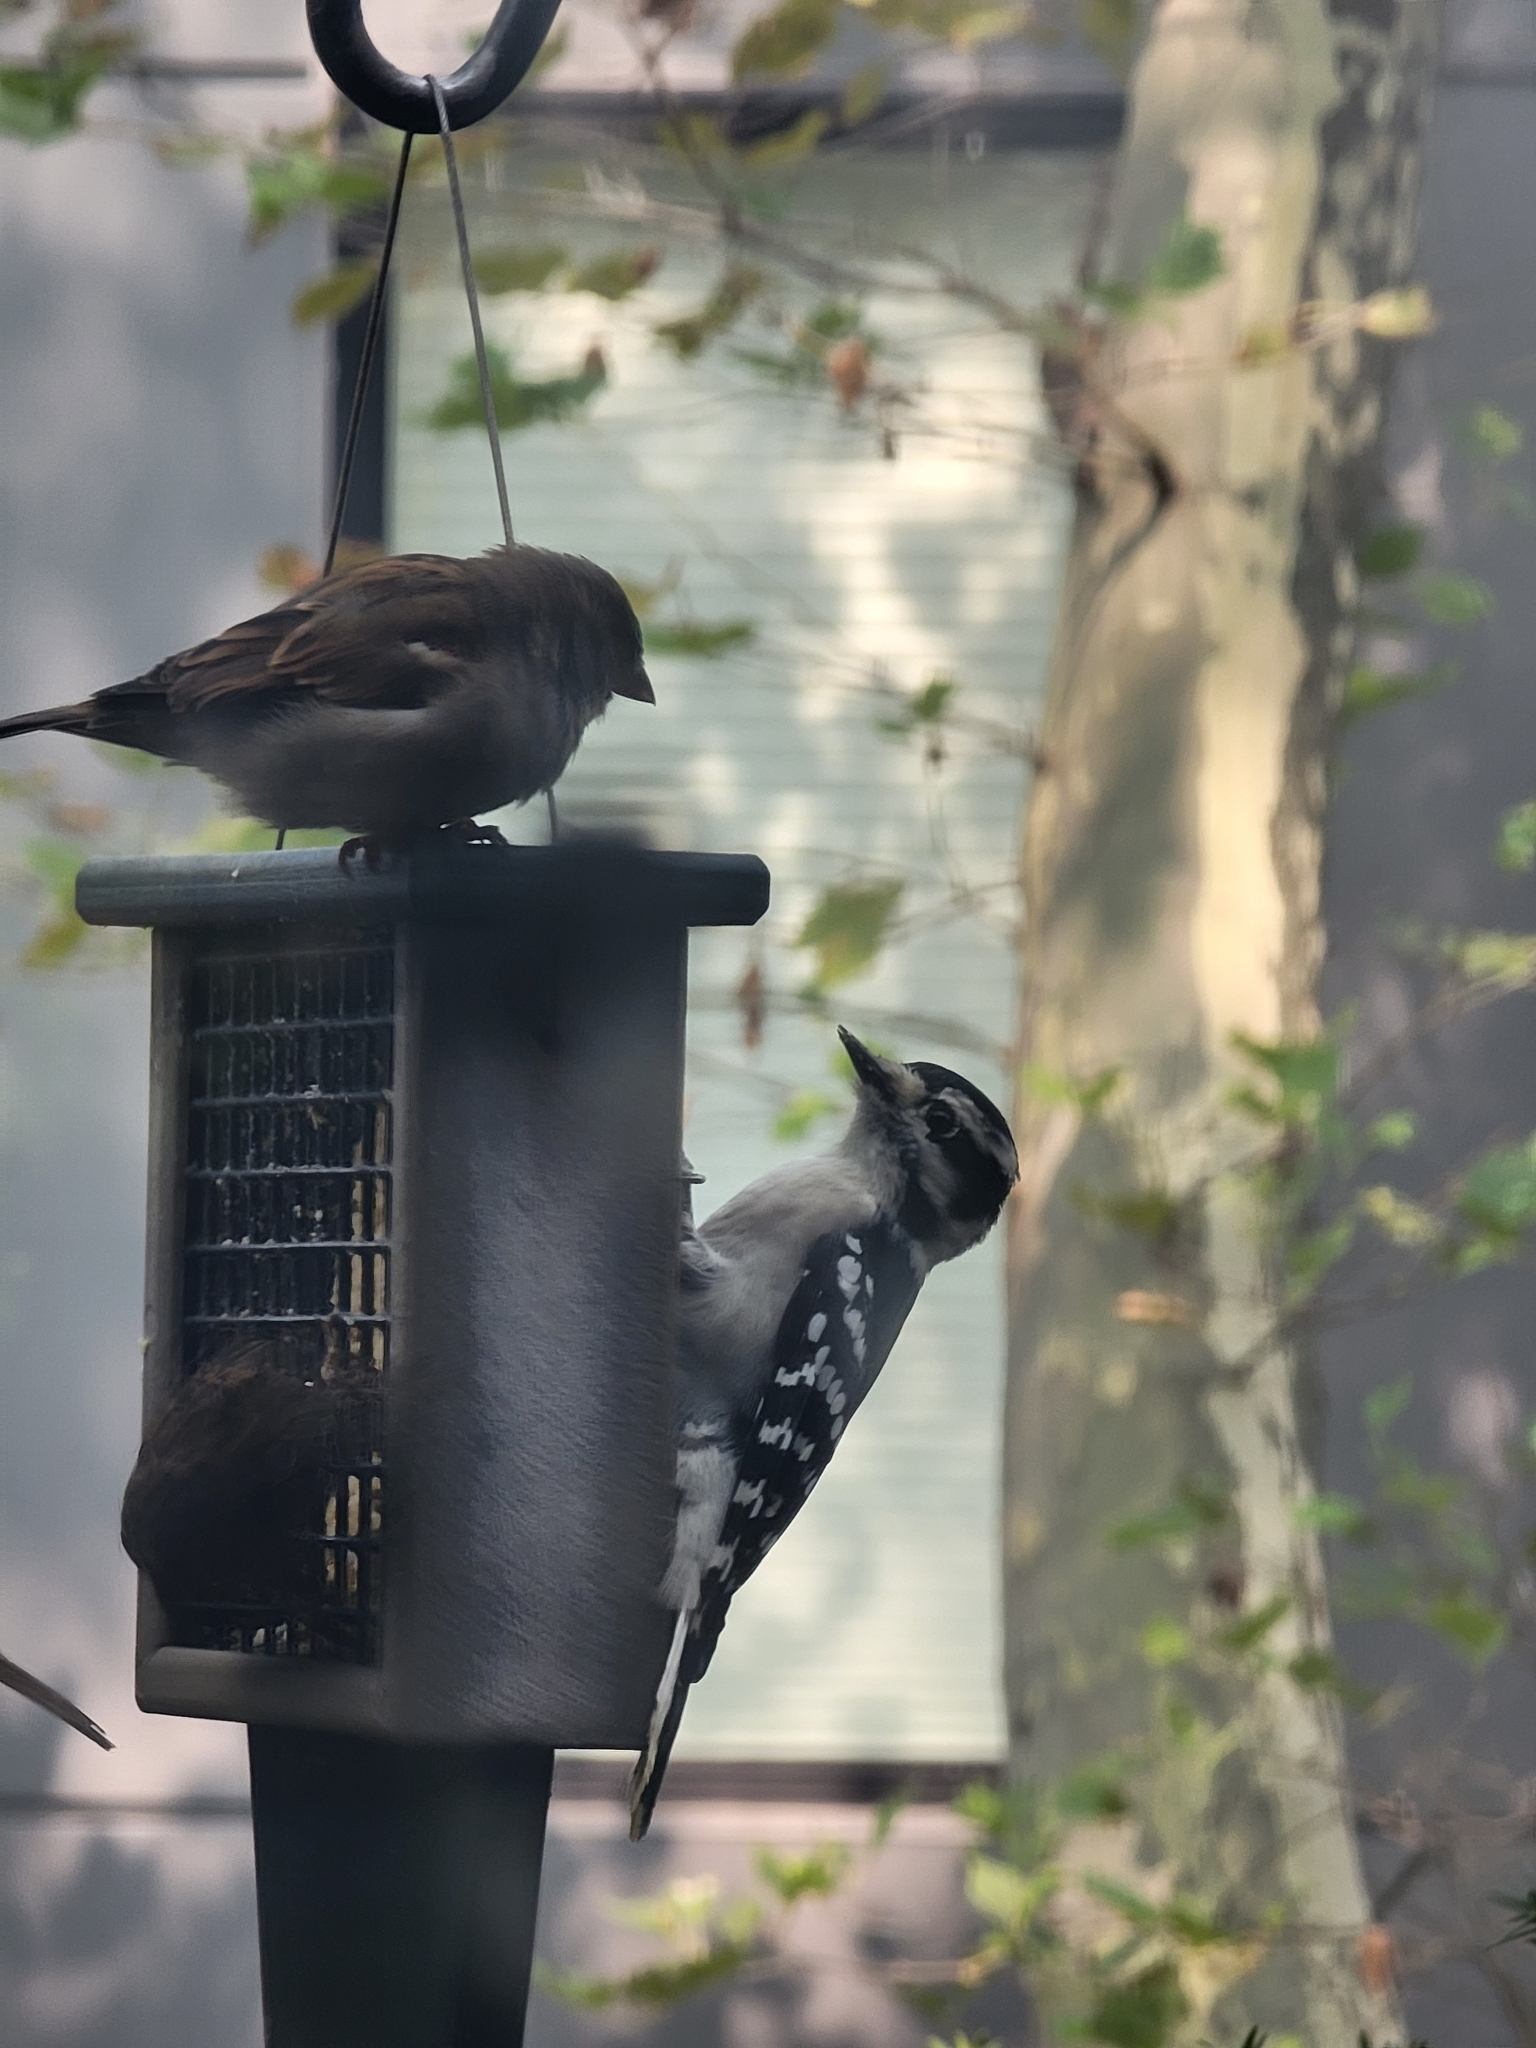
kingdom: Animalia
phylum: Chordata
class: Aves
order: Piciformes
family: Picidae
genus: Dryobates
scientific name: Dryobates pubescens
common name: Downy woodpecker
